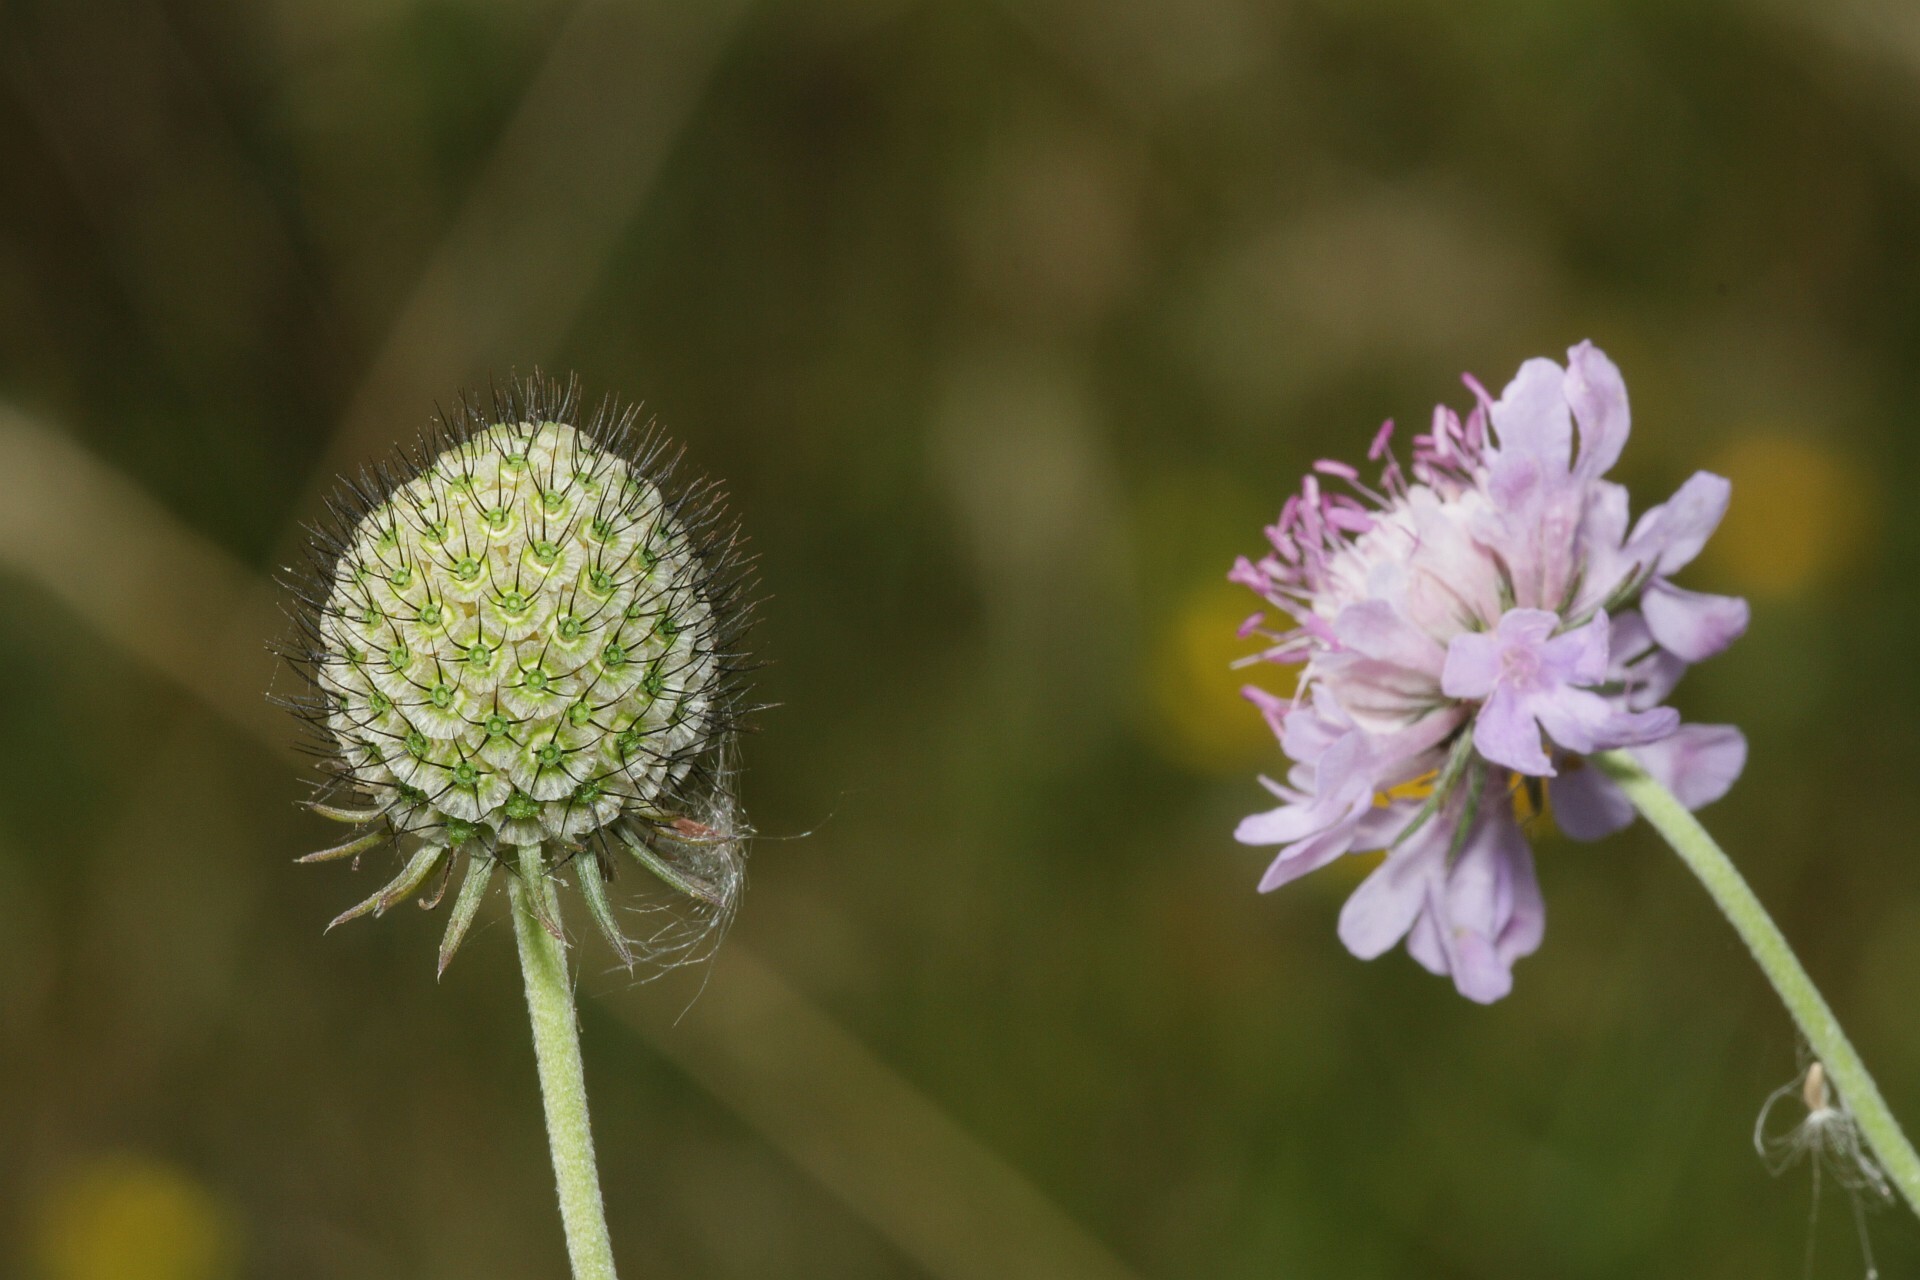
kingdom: Plantae
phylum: Tracheophyta
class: Magnoliopsida
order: Dipsacales
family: Caprifoliaceae
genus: Scabiosa
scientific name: Scabiosa columbaria
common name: Small scabious
